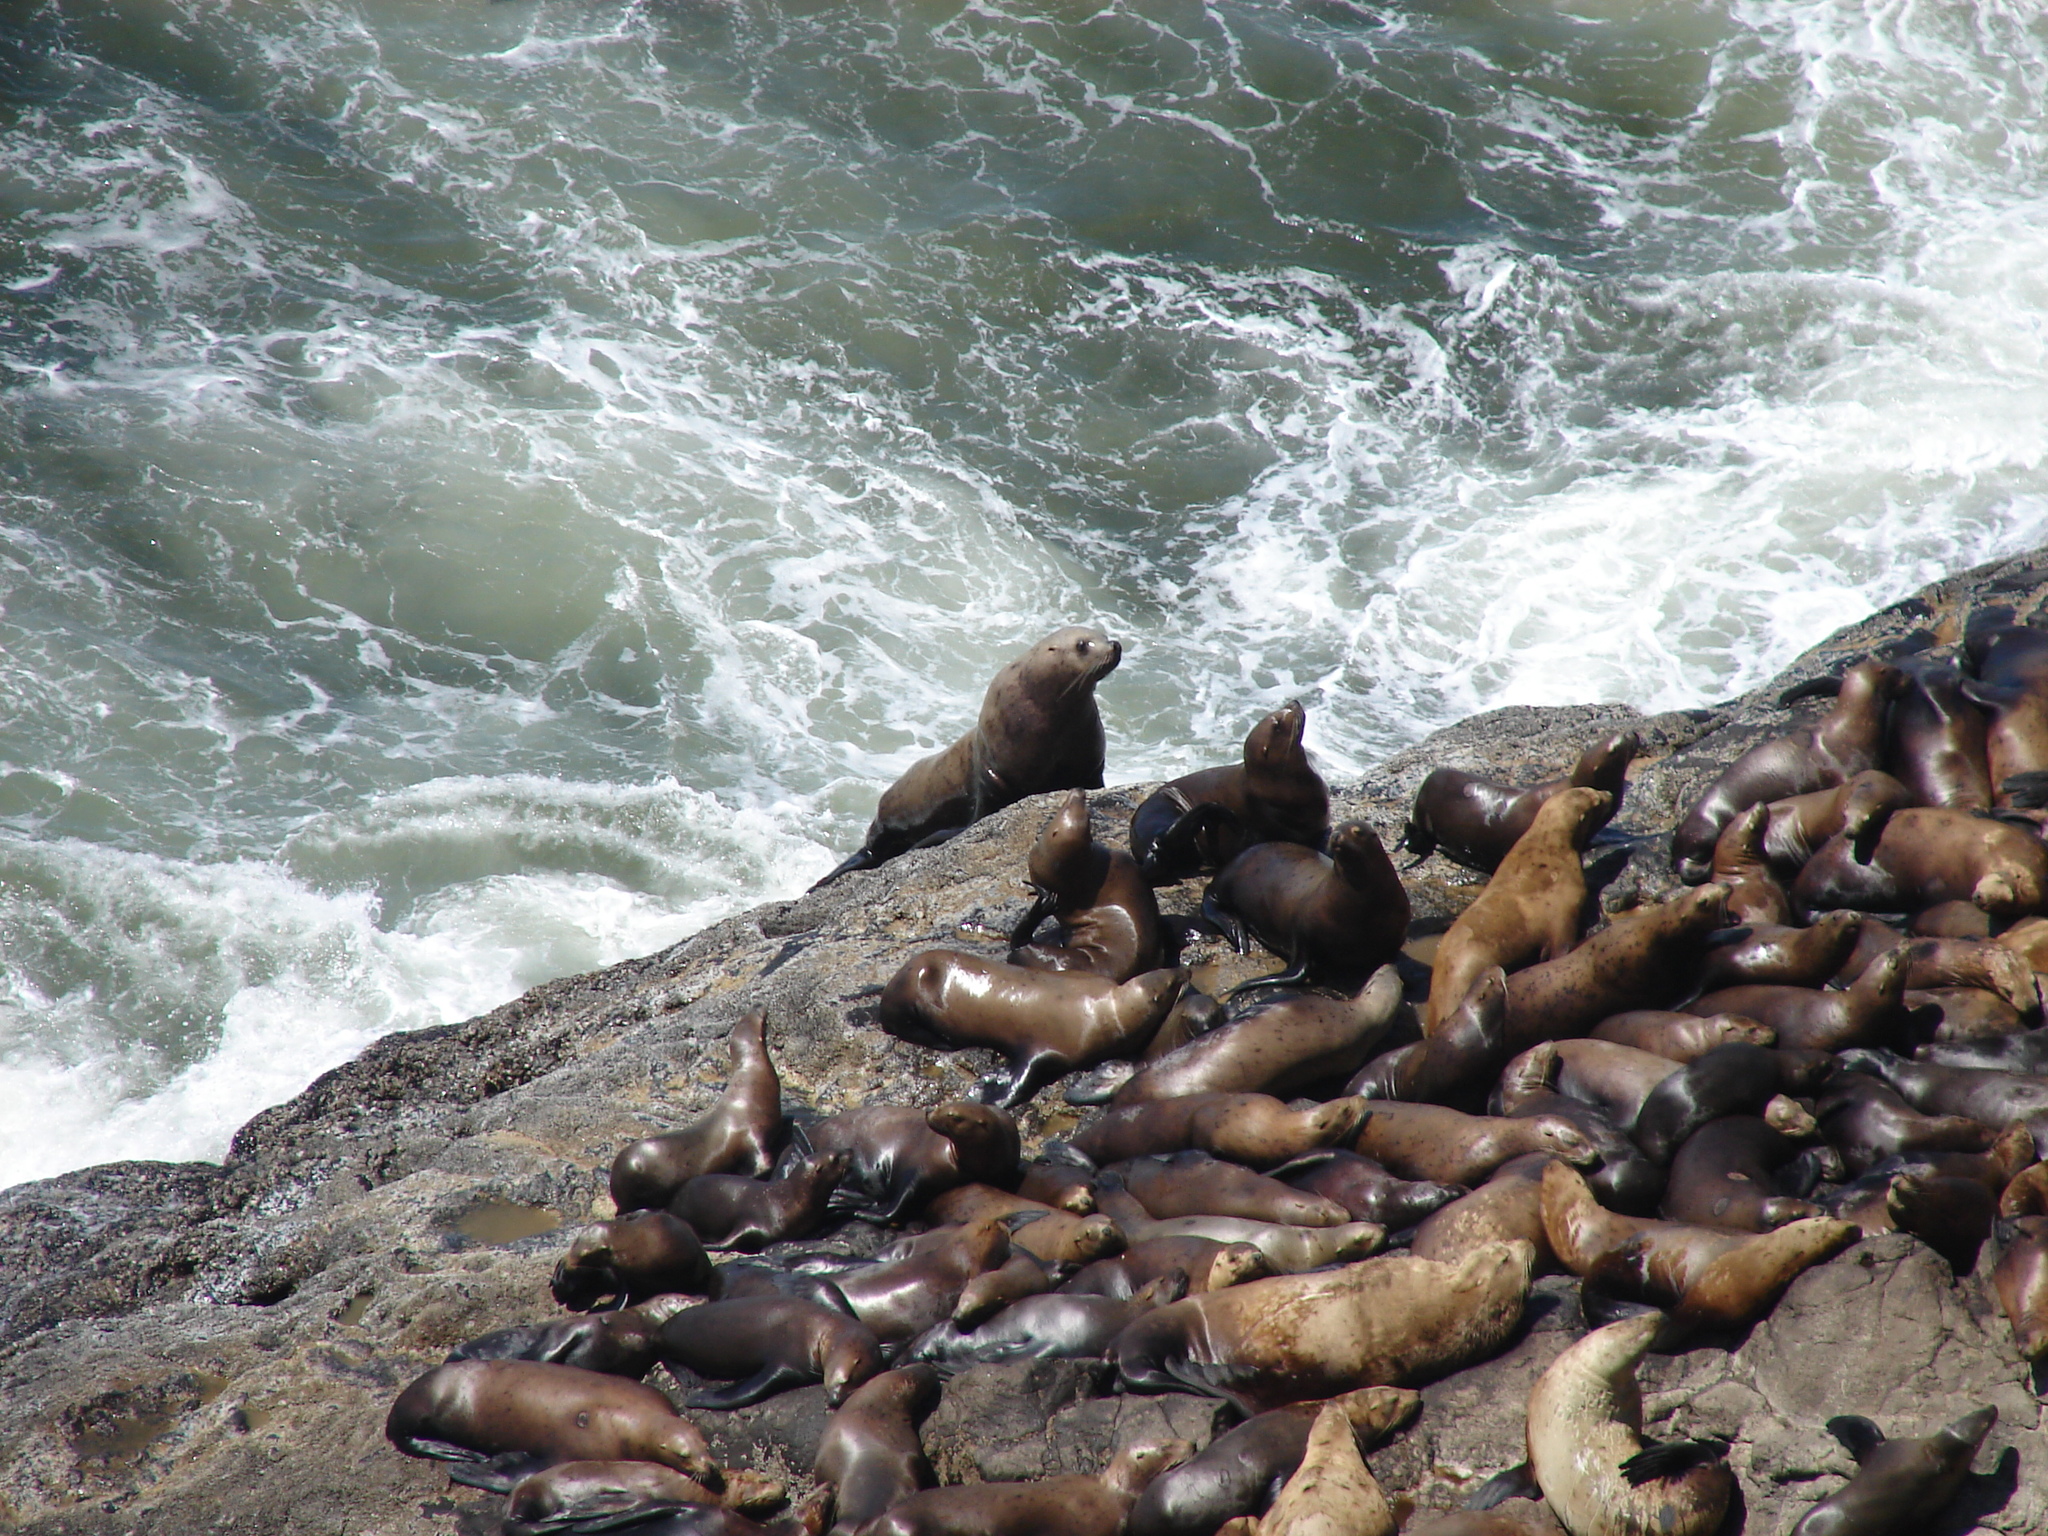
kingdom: Animalia
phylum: Chordata
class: Mammalia
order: Carnivora
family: Otariidae
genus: Eumetopias
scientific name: Eumetopias jubatus
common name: Steller sea lion
